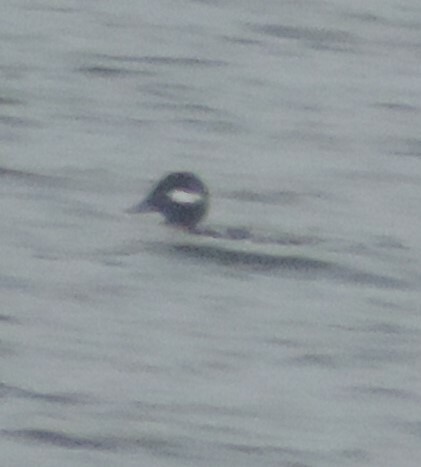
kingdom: Animalia
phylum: Chordata
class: Aves
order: Anseriformes
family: Anatidae
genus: Bucephala
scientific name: Bucephala albeola
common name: Bufflehead
